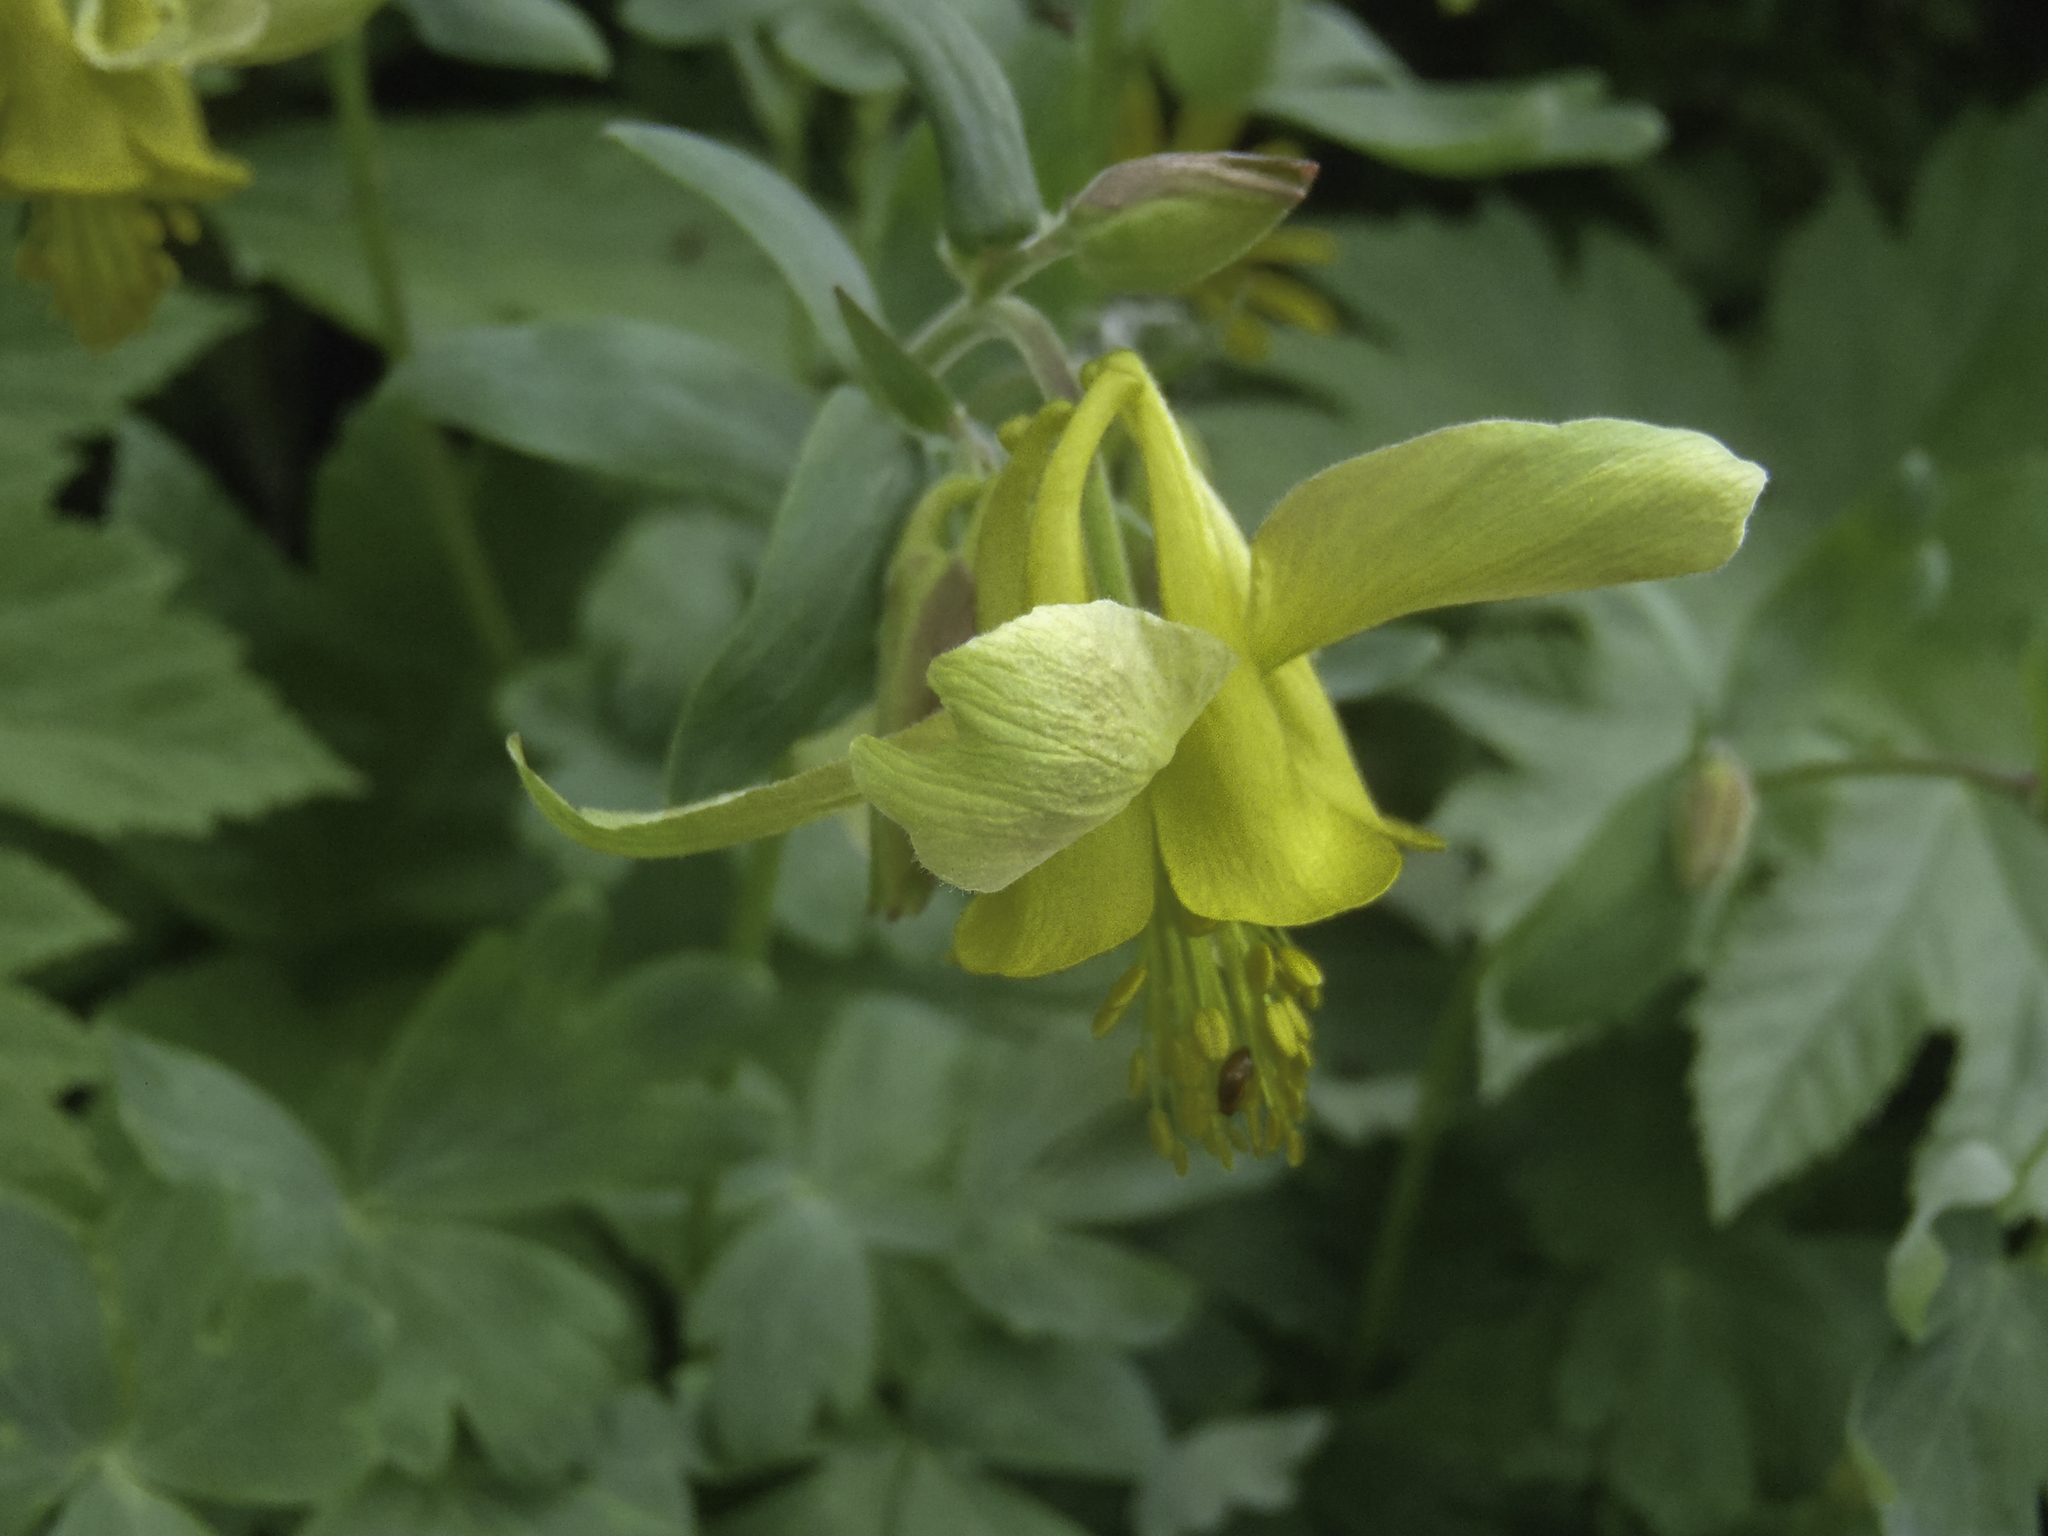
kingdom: Plantae
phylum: Tracheophyta
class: Magnoliopsida
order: Ranunculales
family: Ranunculaceae
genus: Aquilegia
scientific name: Aquilegia flavescens
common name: Yellow columbine
